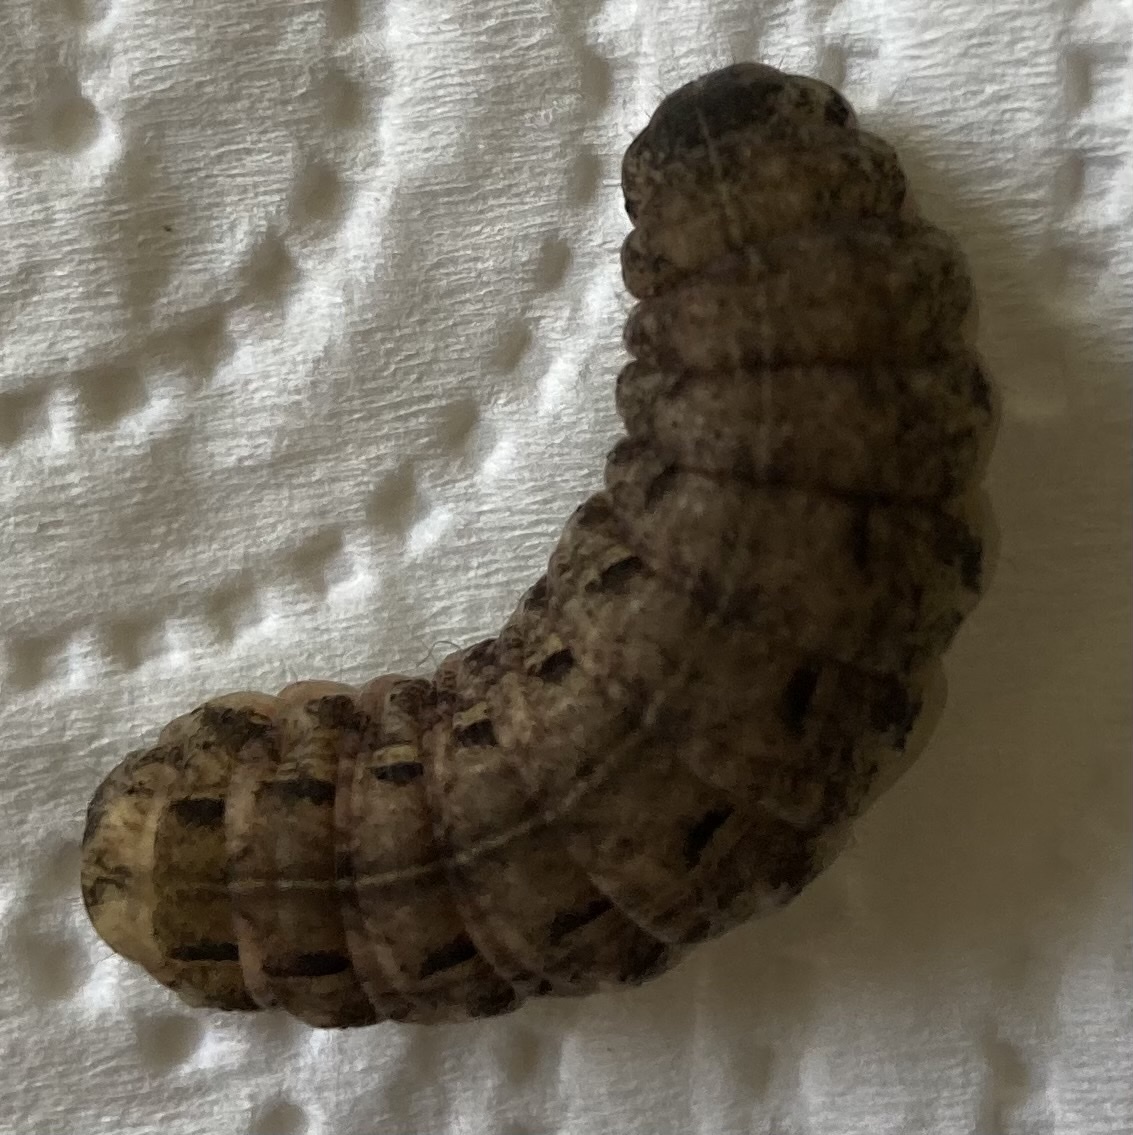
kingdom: Animalia
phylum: Arthropoda
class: Insecta
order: Lepidoptera
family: Noctuidae
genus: Noctua
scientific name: Noctua pronuba
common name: Large yellow underwing
